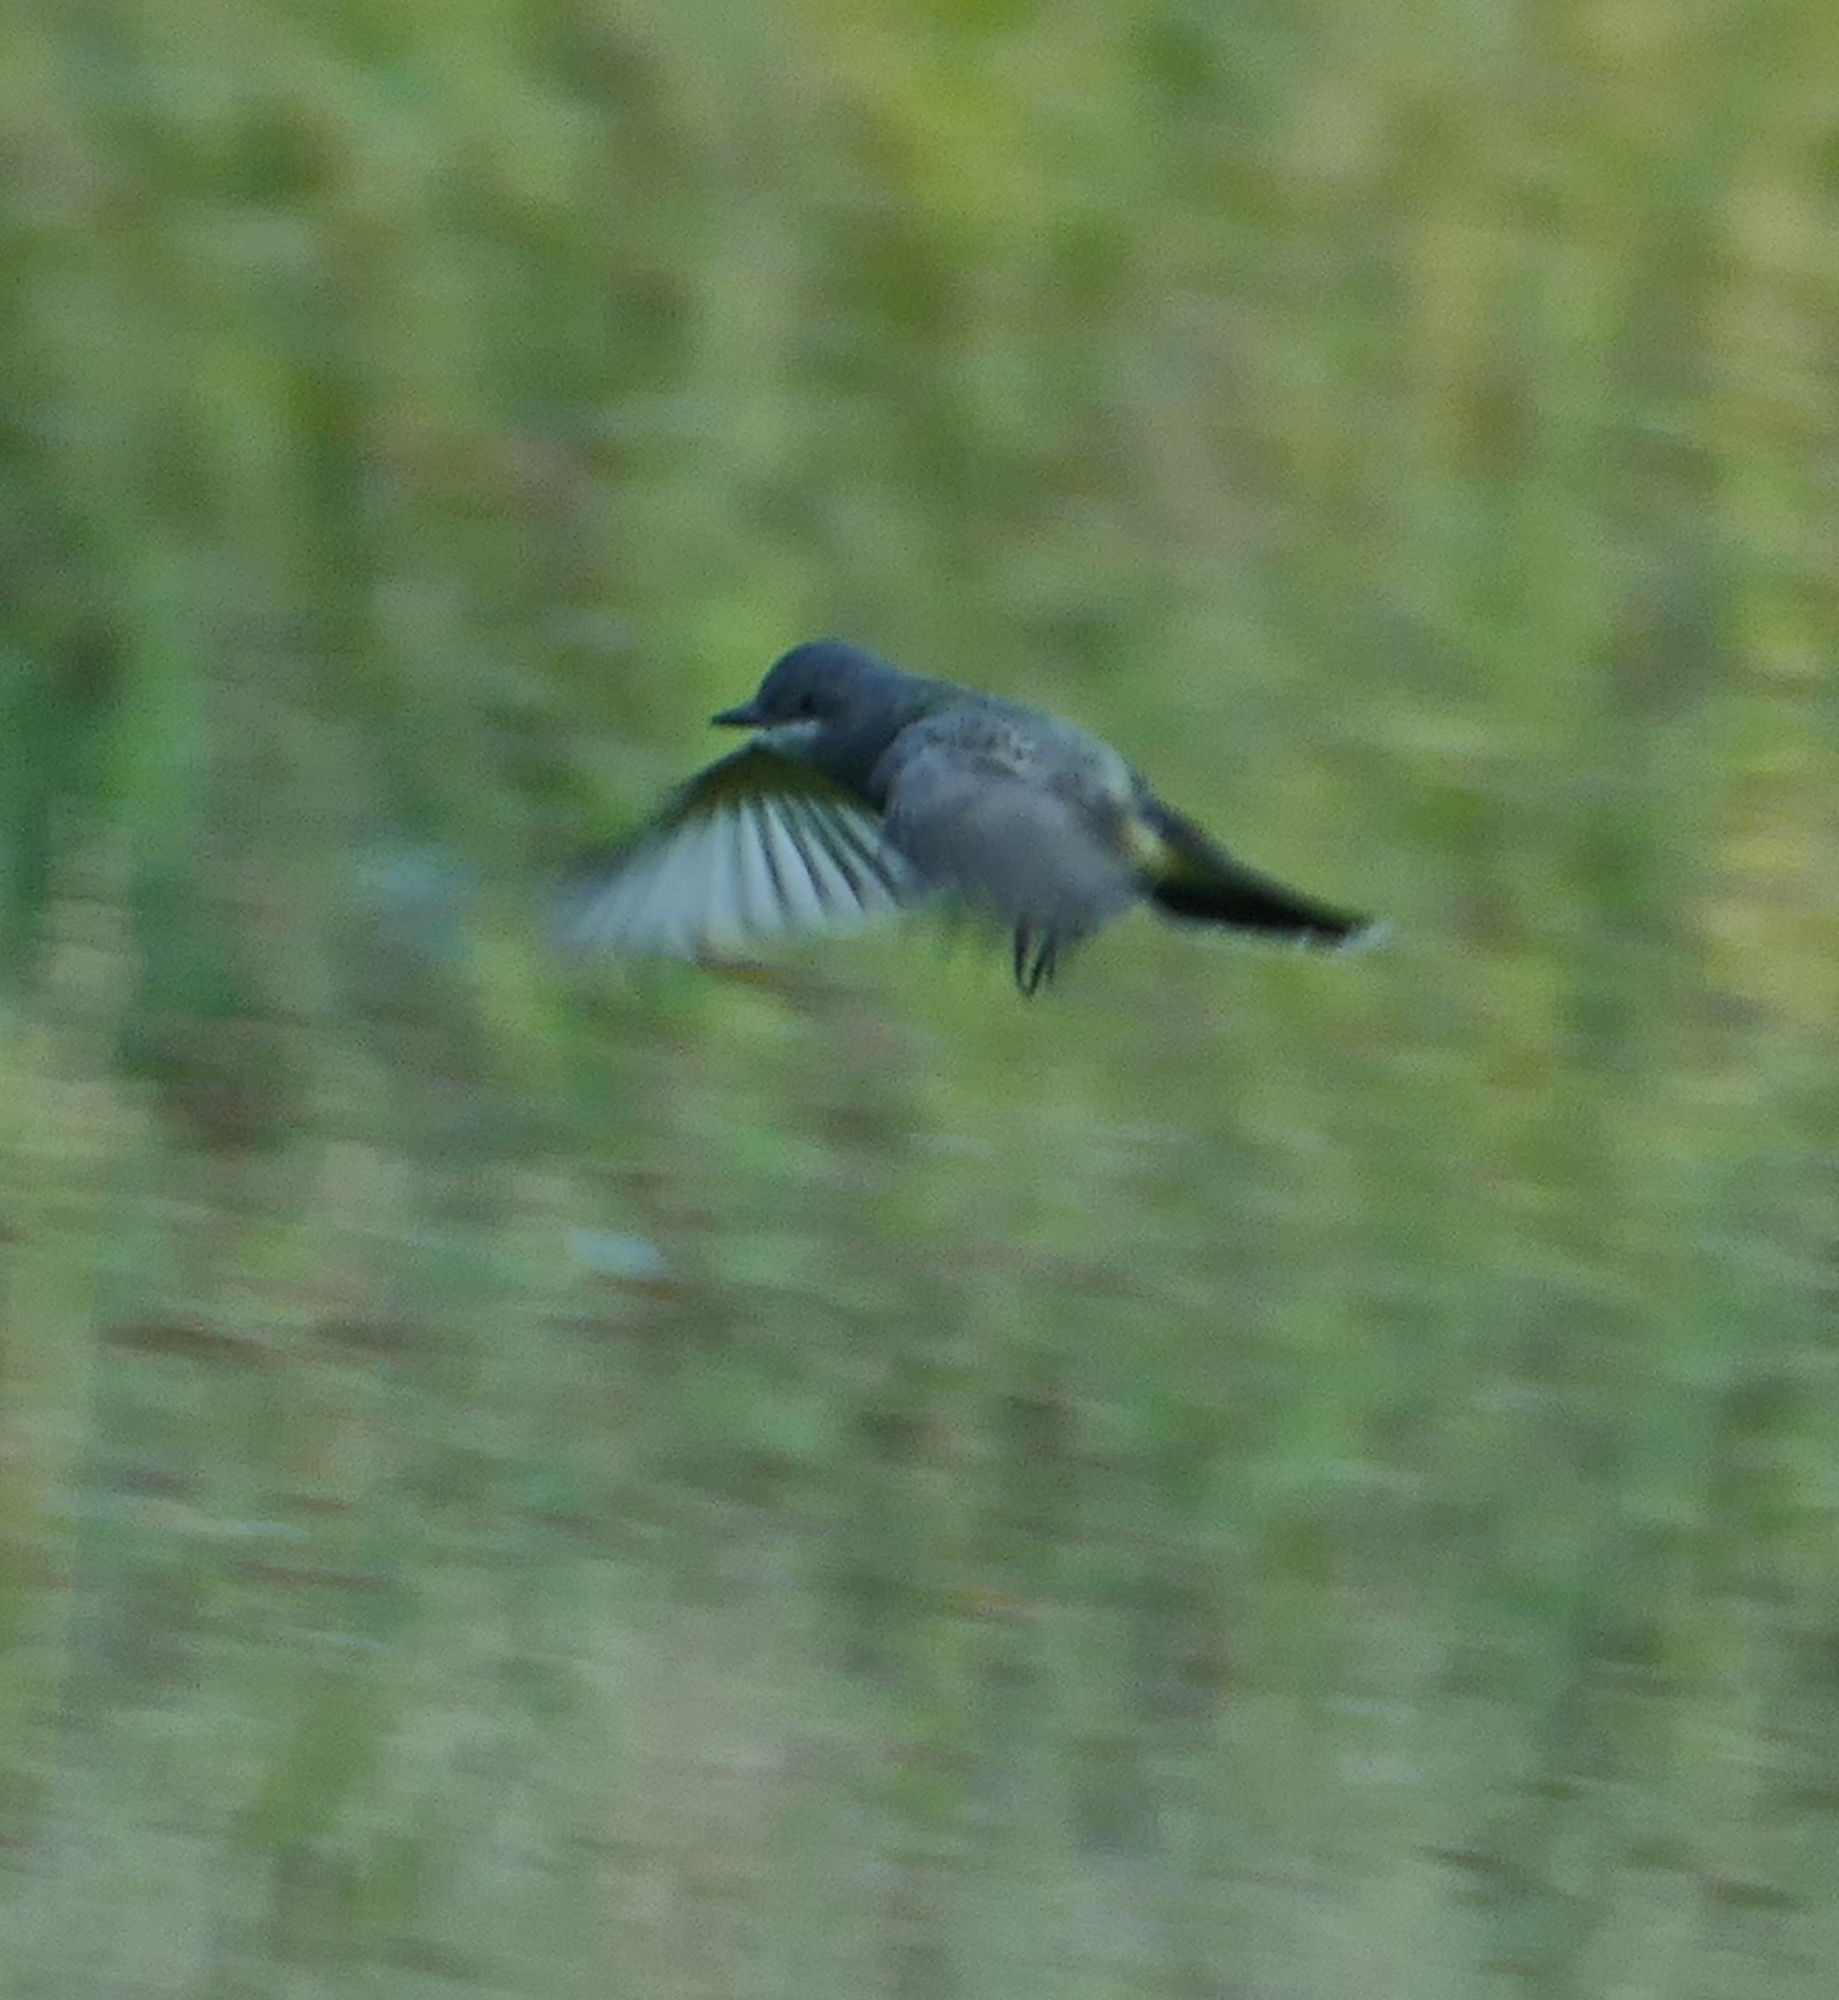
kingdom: Animalia
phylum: Chordata
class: Aves
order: Passeriformes
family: Tyrannidae
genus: Tyrannus
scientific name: Tyrannus vociferans
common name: Cassin's kingbird
